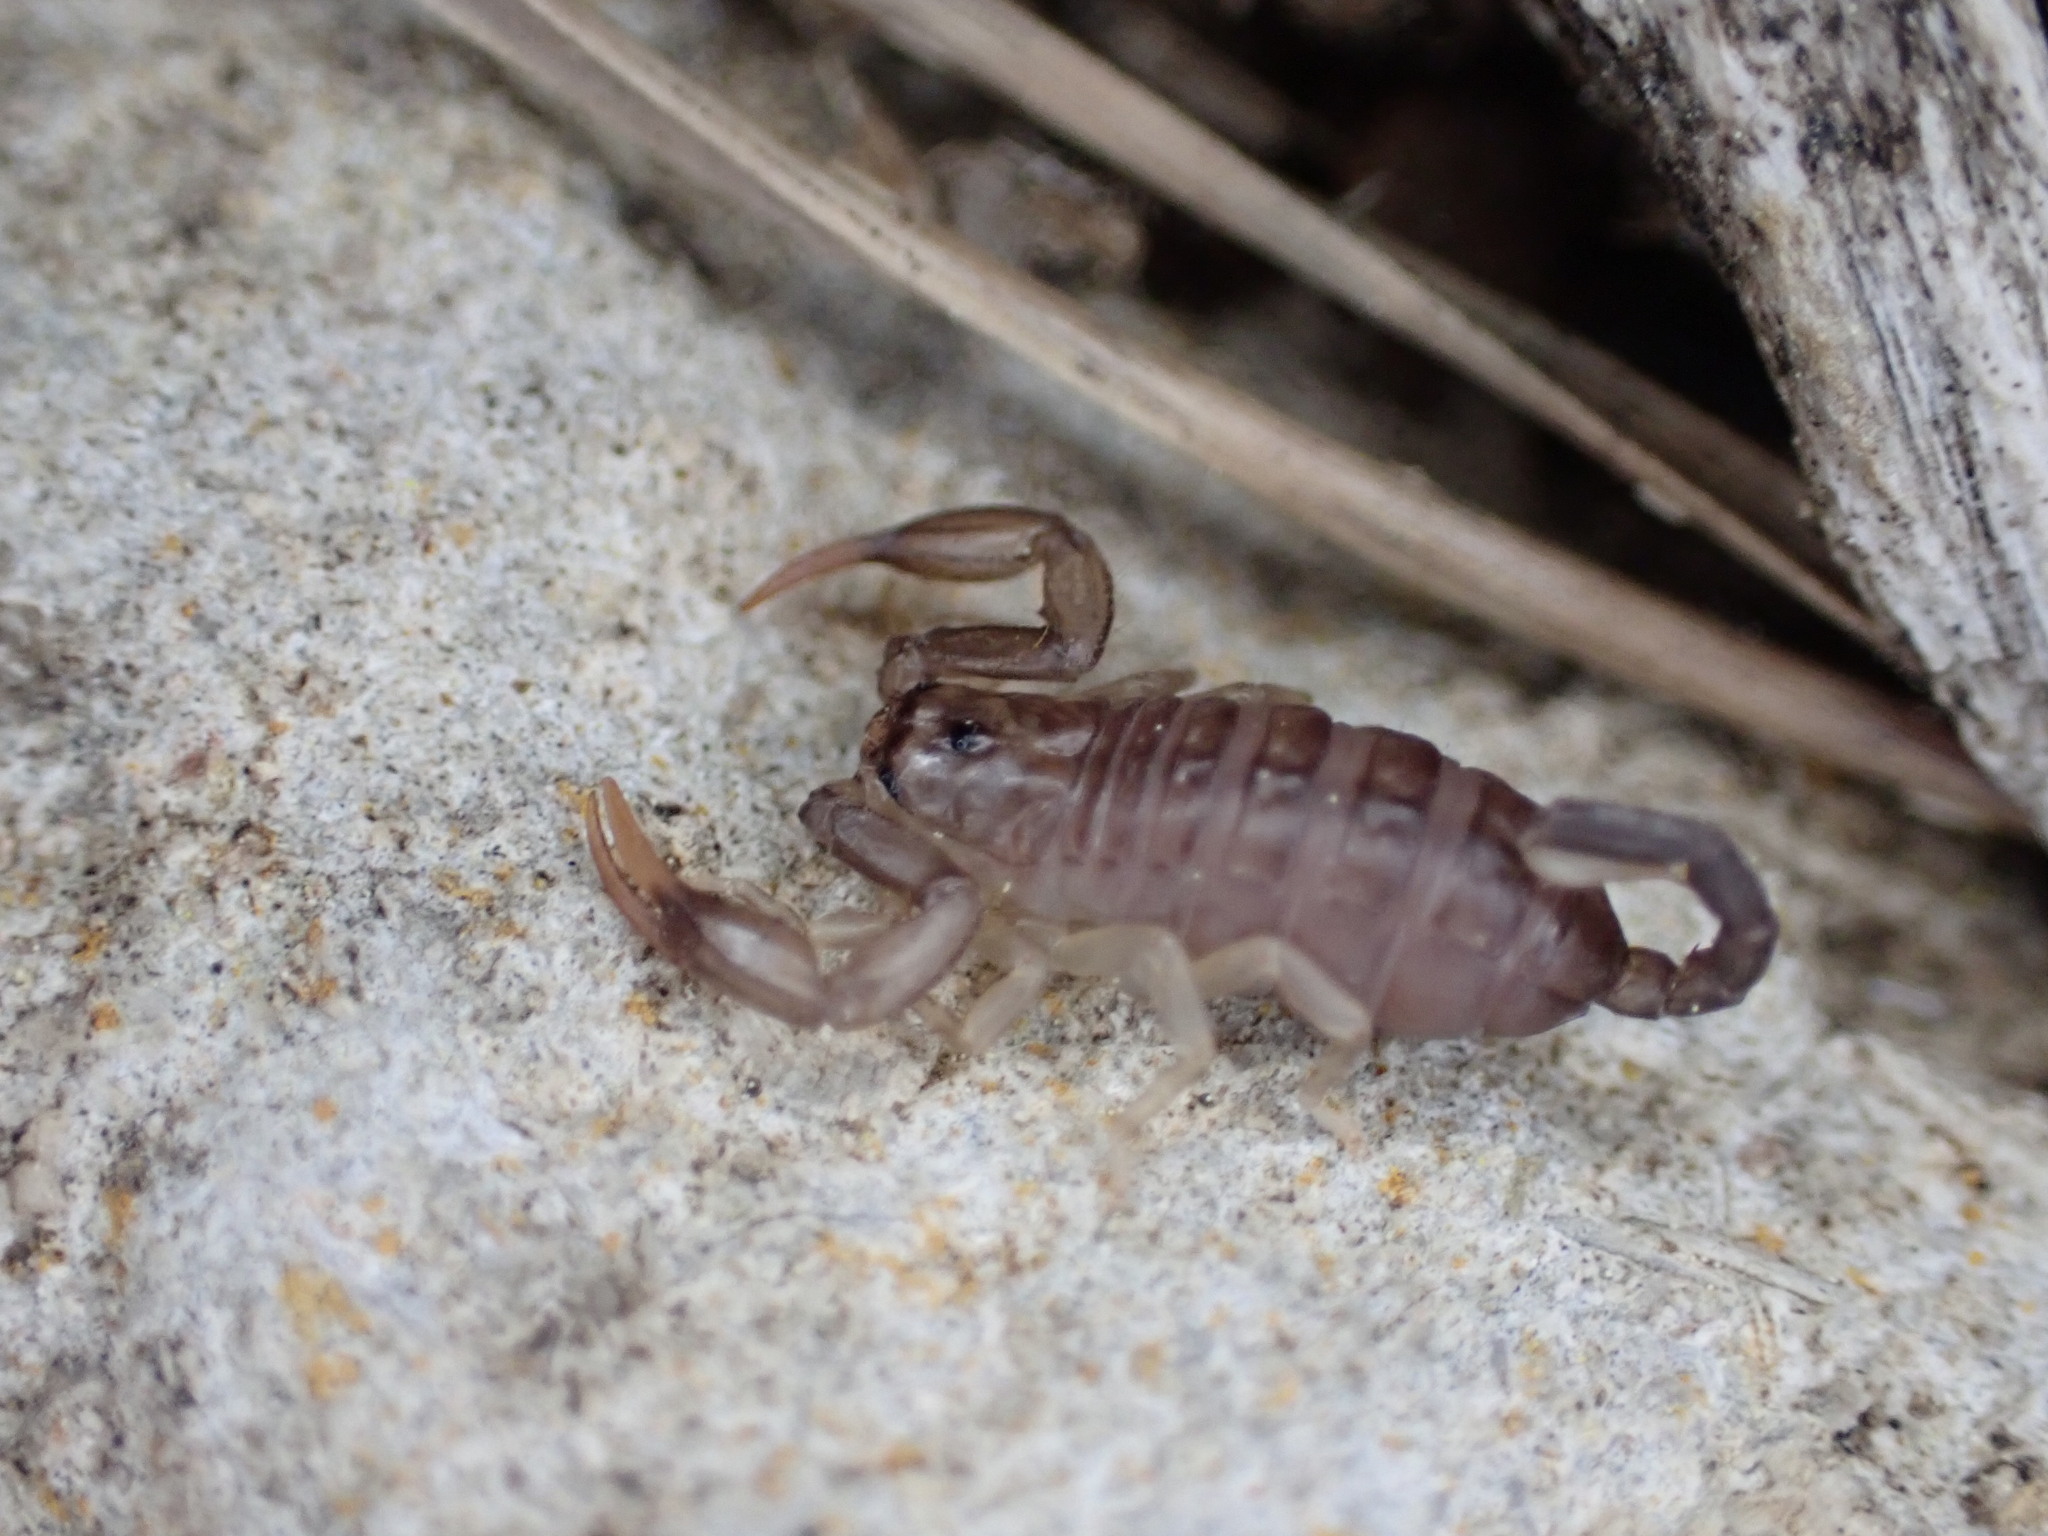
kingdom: Animalia
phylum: Arthropoda
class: Arachnida
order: Scorpiones
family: Euscorpiidae
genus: Euscorpius
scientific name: Euscorpius
